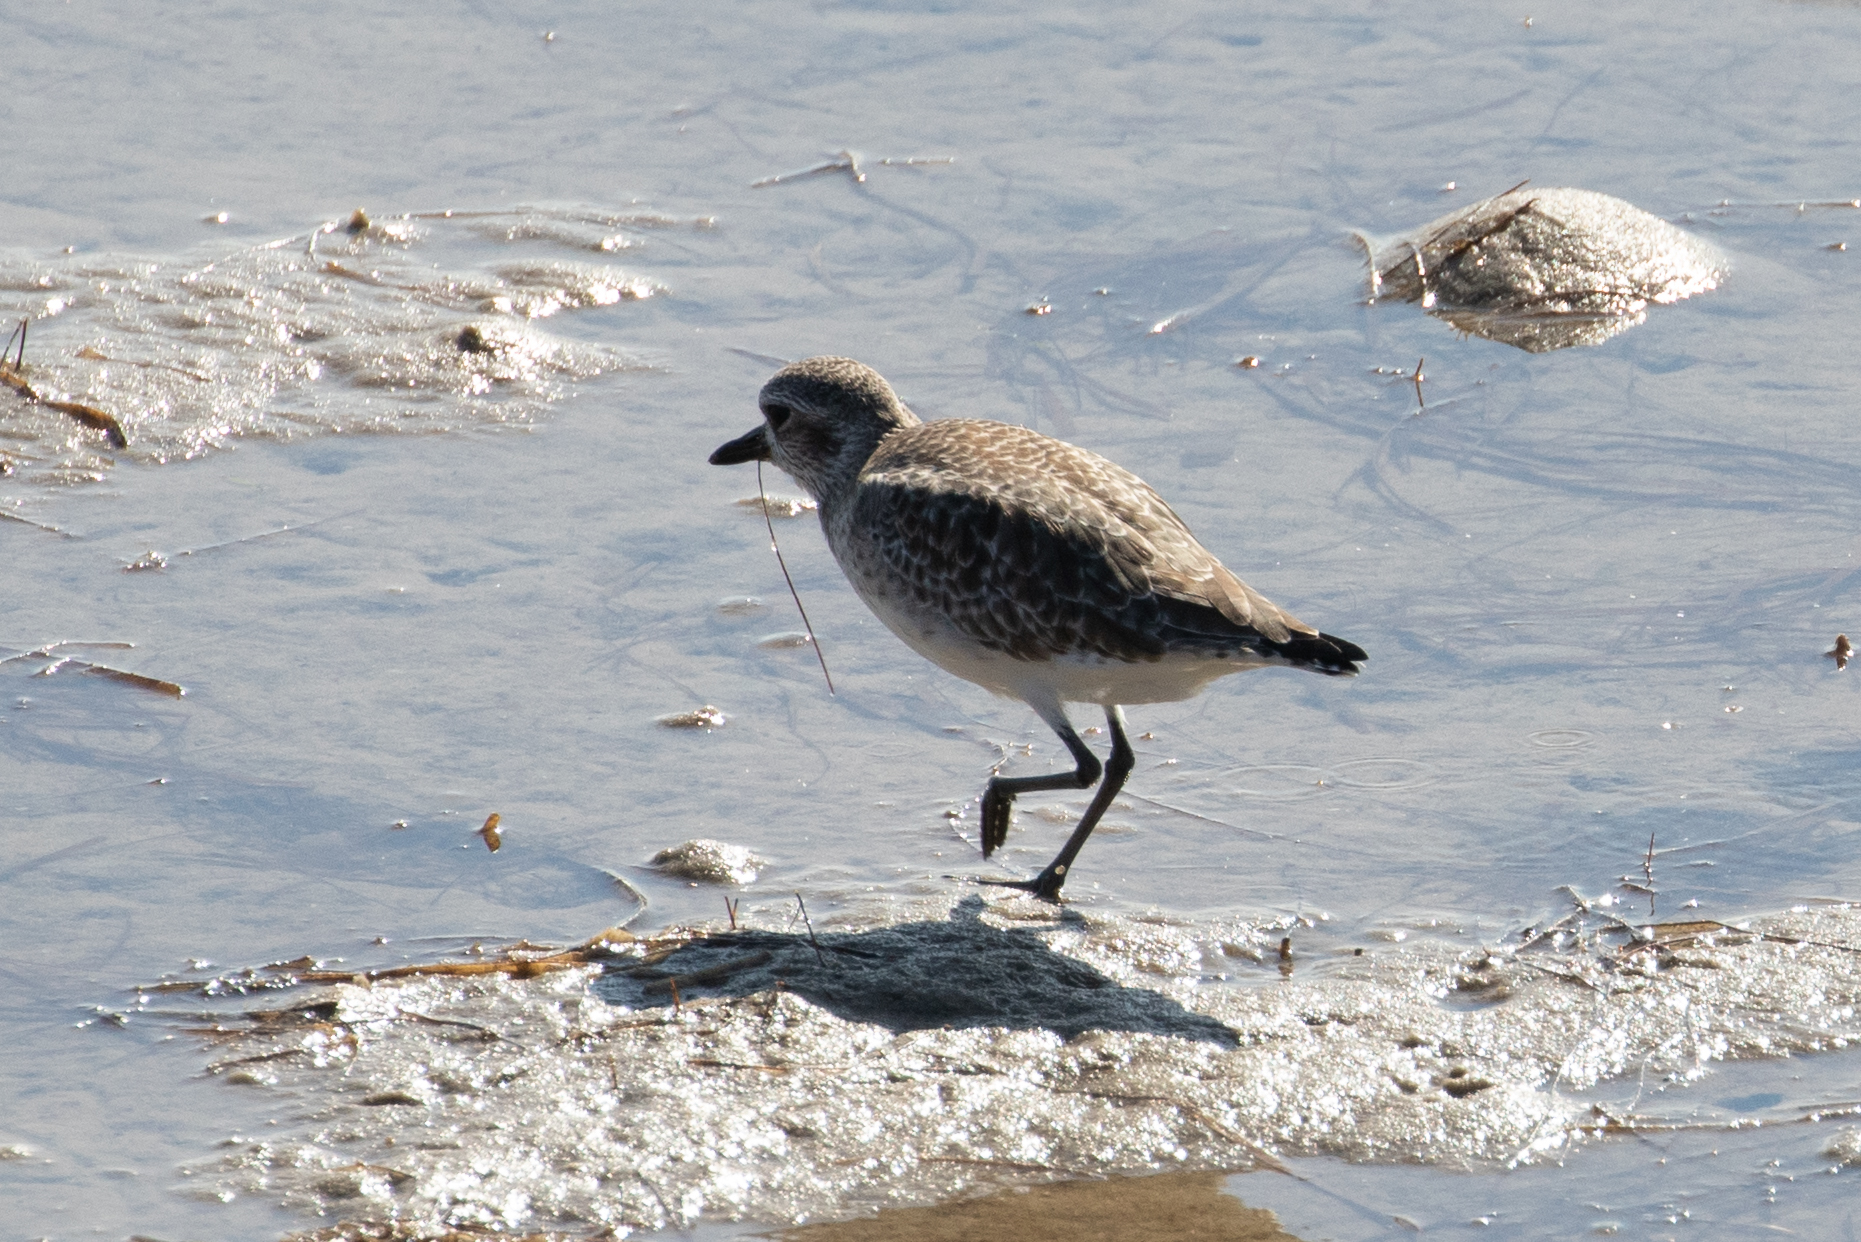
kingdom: Animalia
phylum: Chordata
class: Aves
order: Charadriiformes
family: Charadriidae
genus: Pluvialis
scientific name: Pluvialis squatarola
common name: Grey plover
